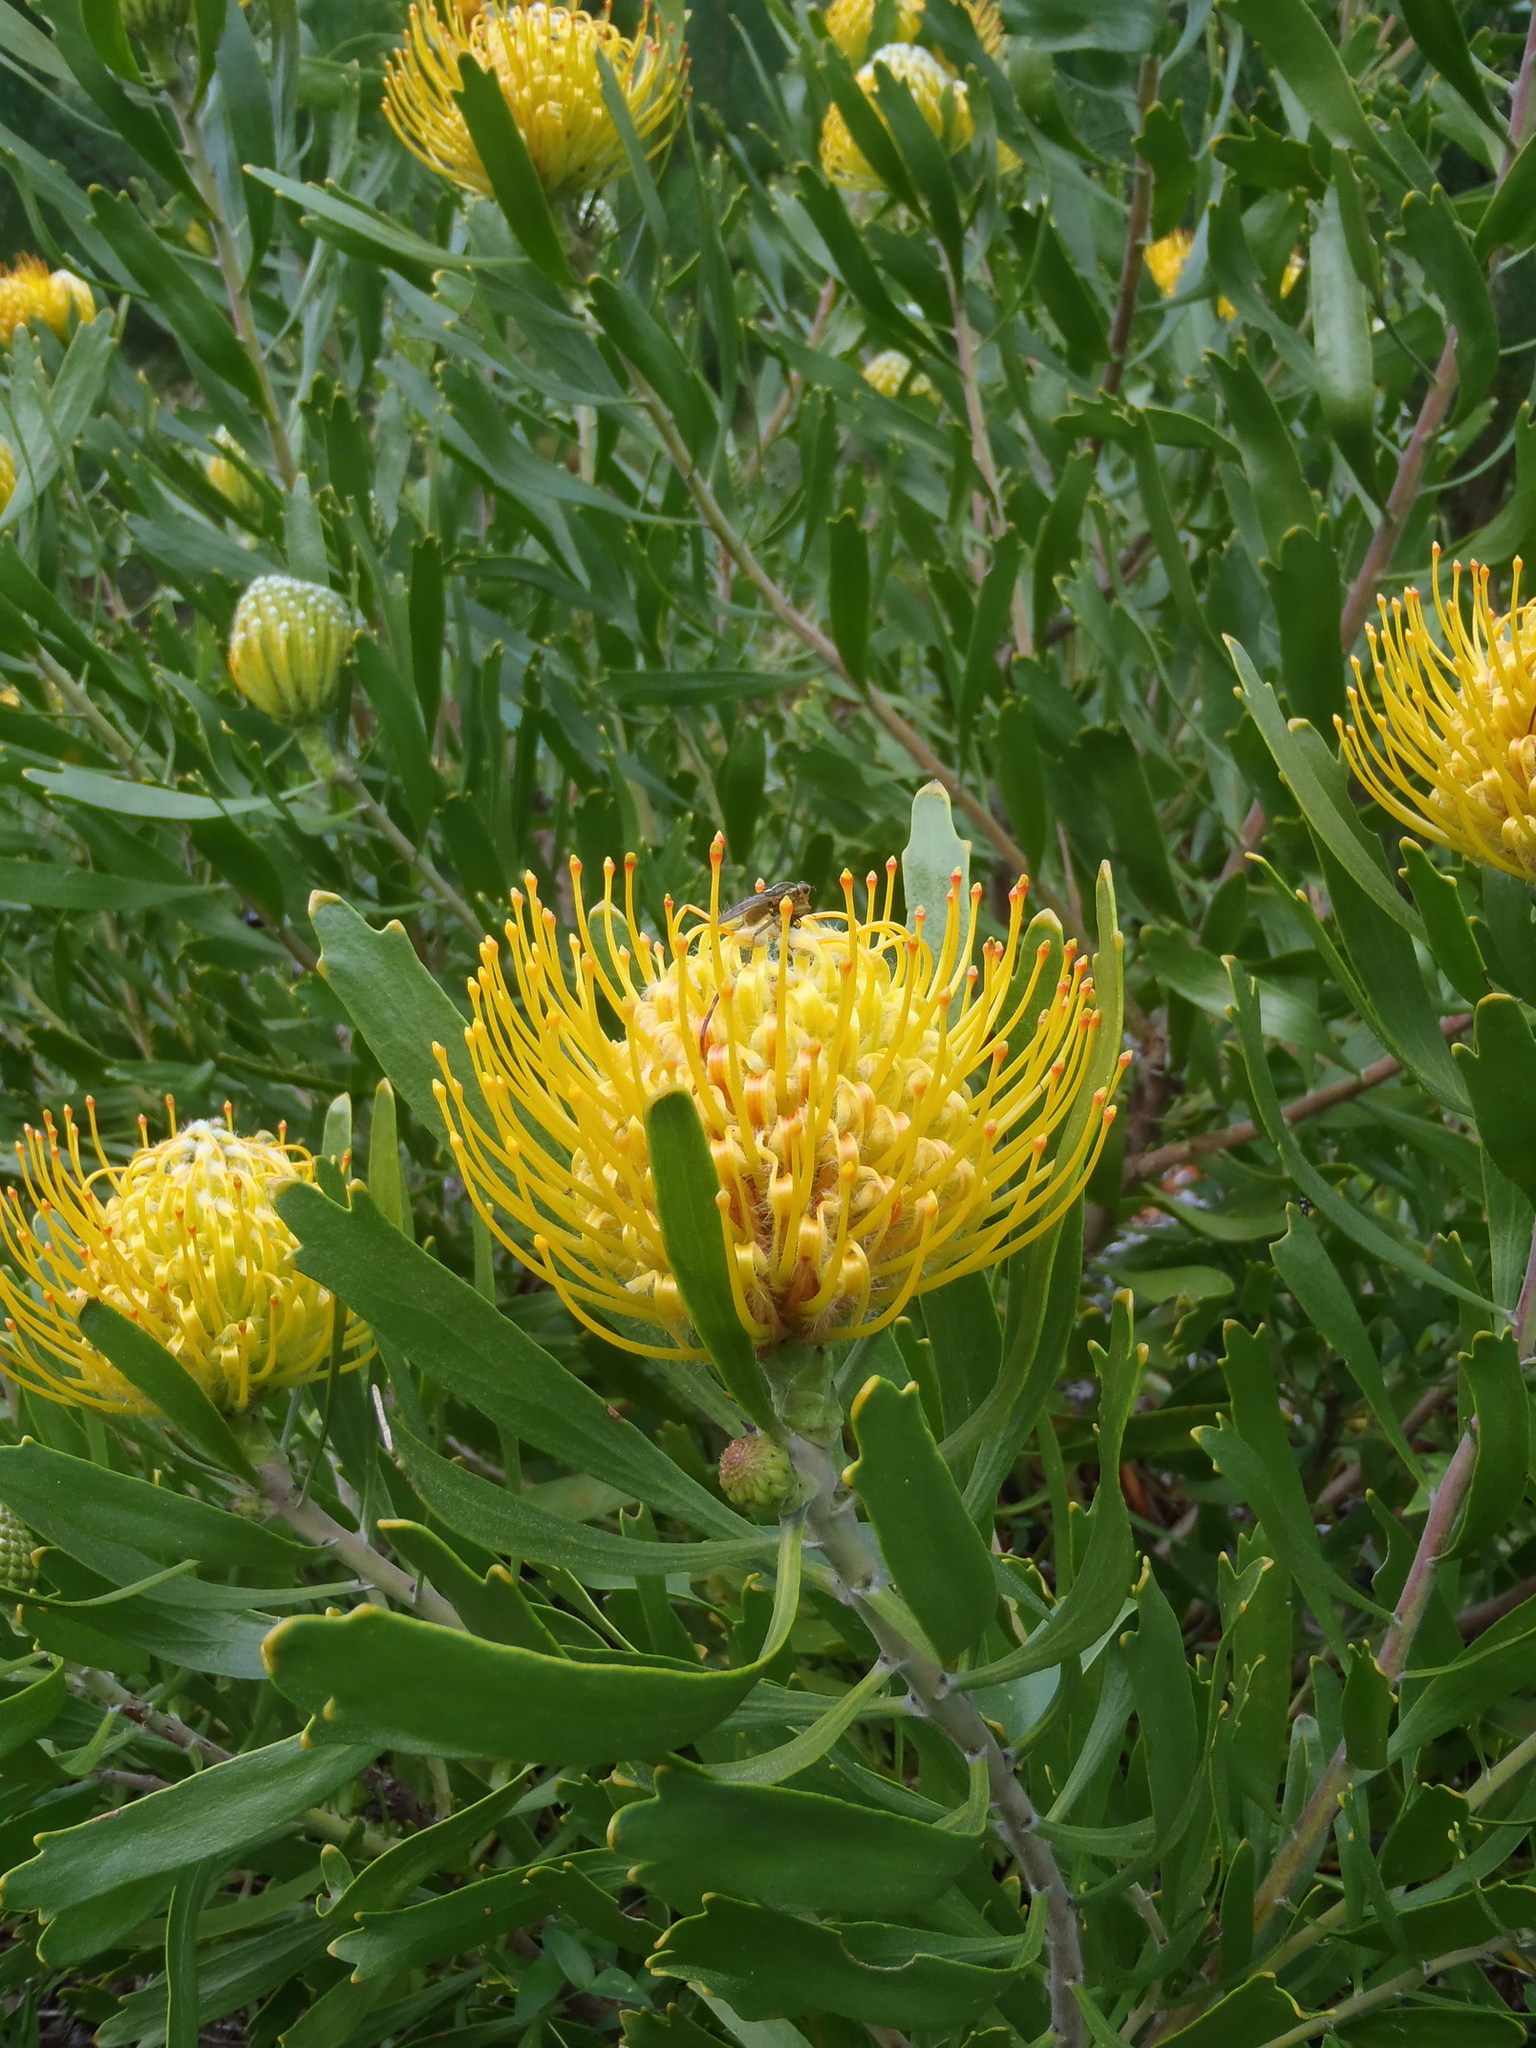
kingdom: Plantae
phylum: Tracheophyta
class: Magnoliopsida
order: Proteales
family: Proteaceae
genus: Leucospermum
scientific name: Leucospermum cuneiforme
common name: Common pincushion
